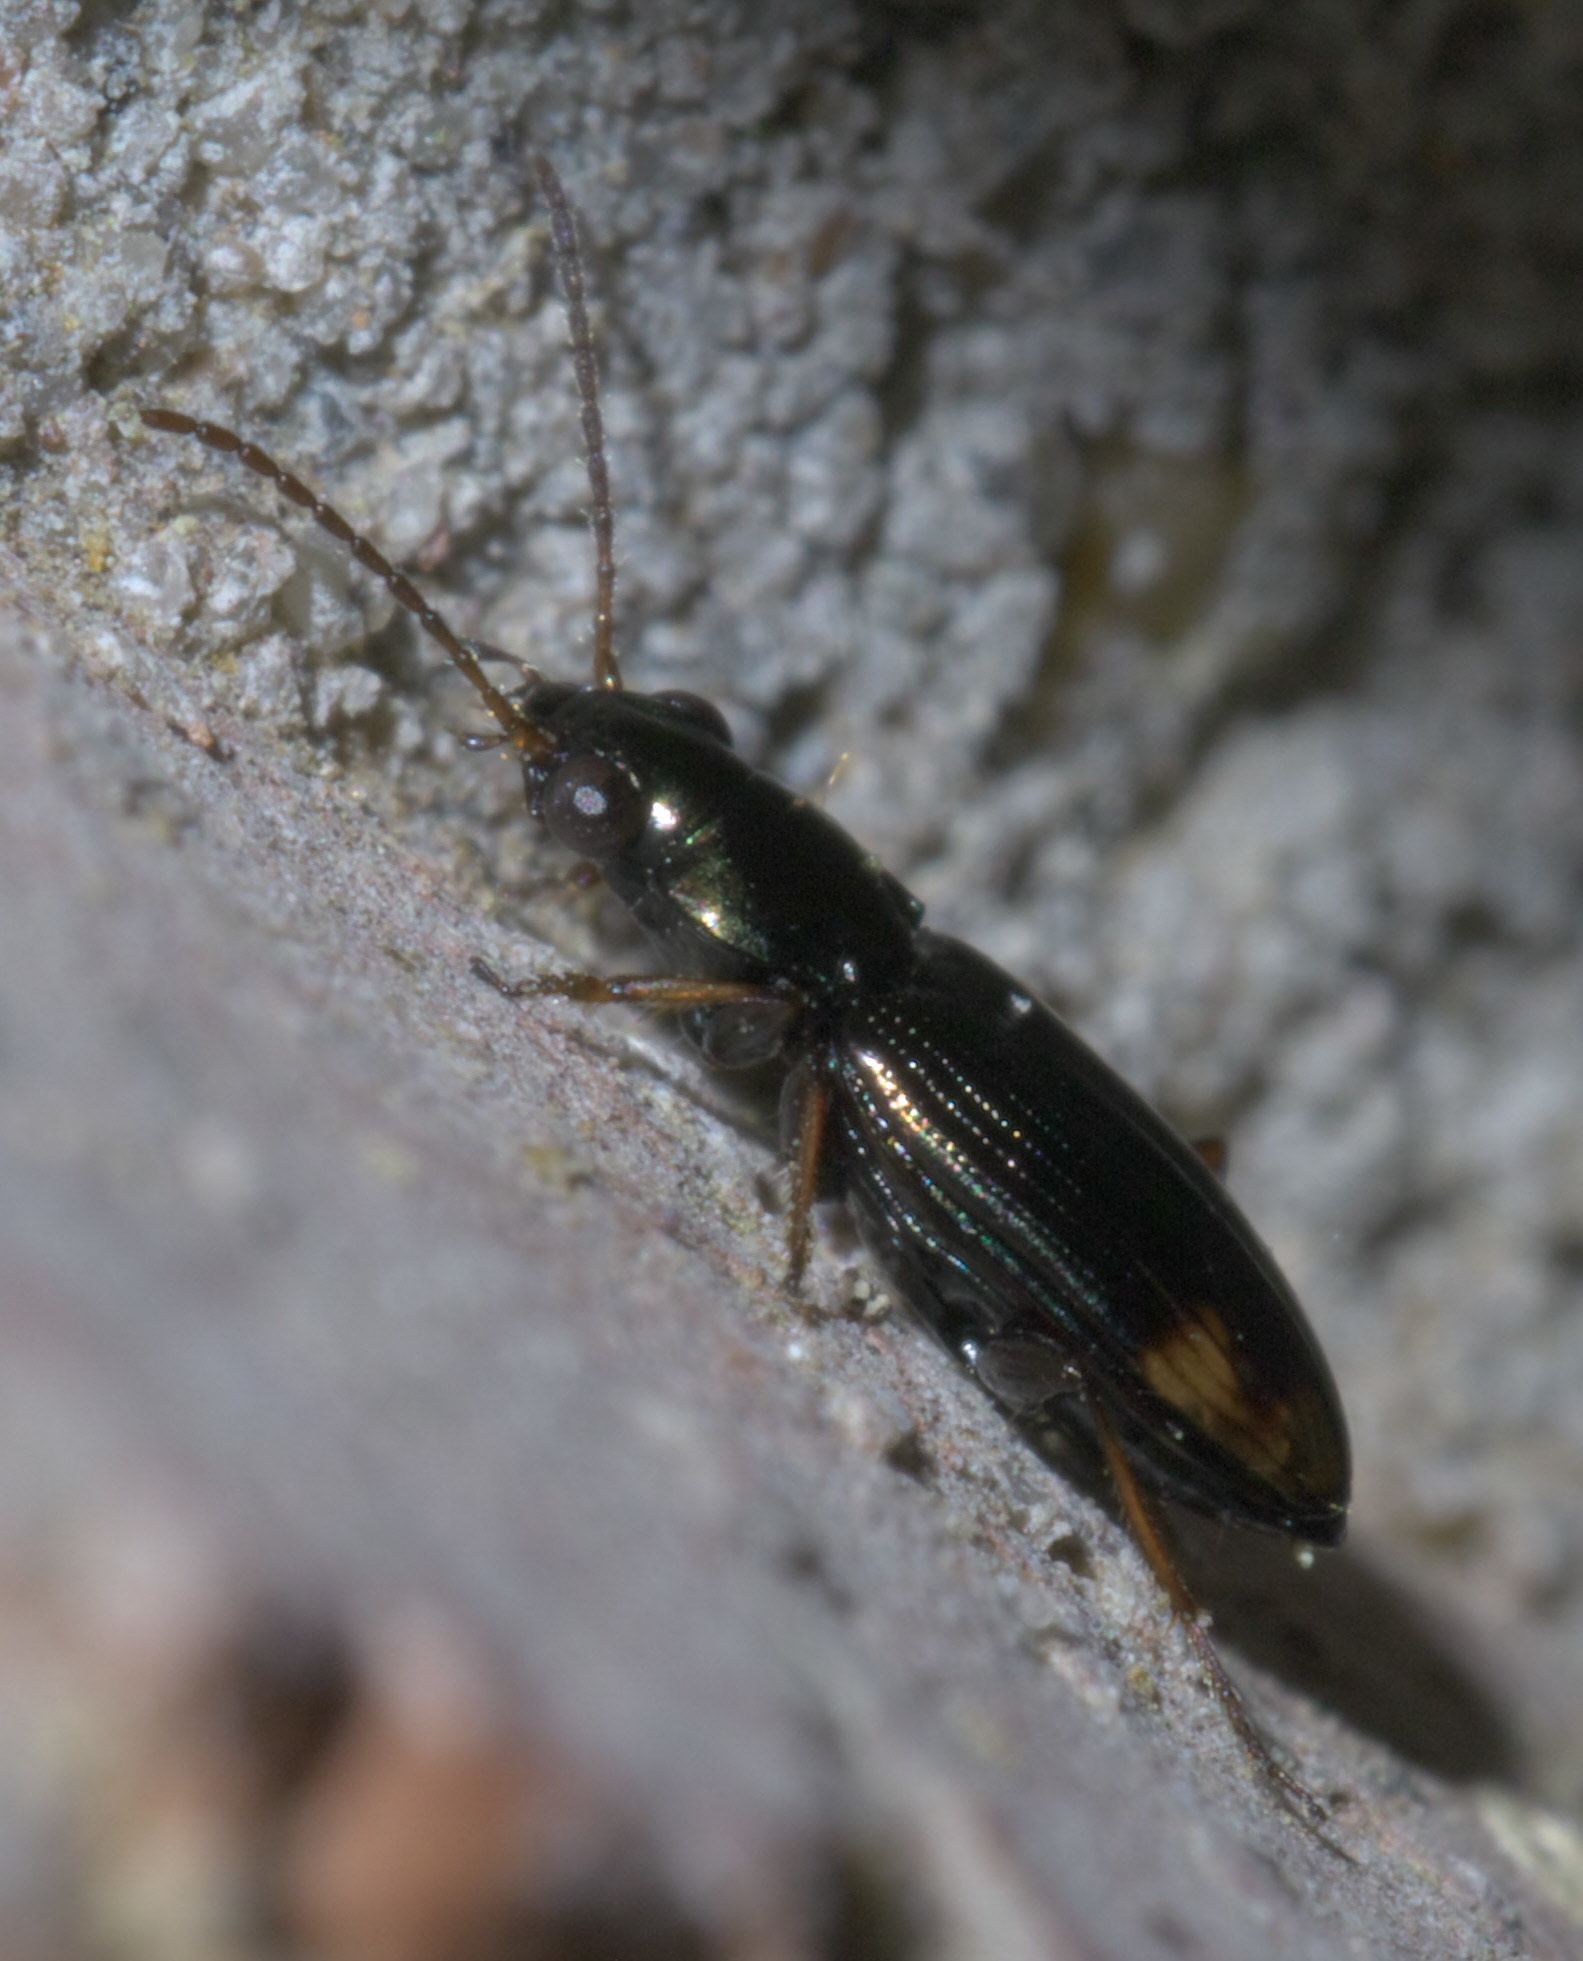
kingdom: Animalia
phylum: Arthropoda
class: Insecta
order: Coleoptera
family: Carabidae
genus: Bembidion
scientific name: Bembidion rapidum
